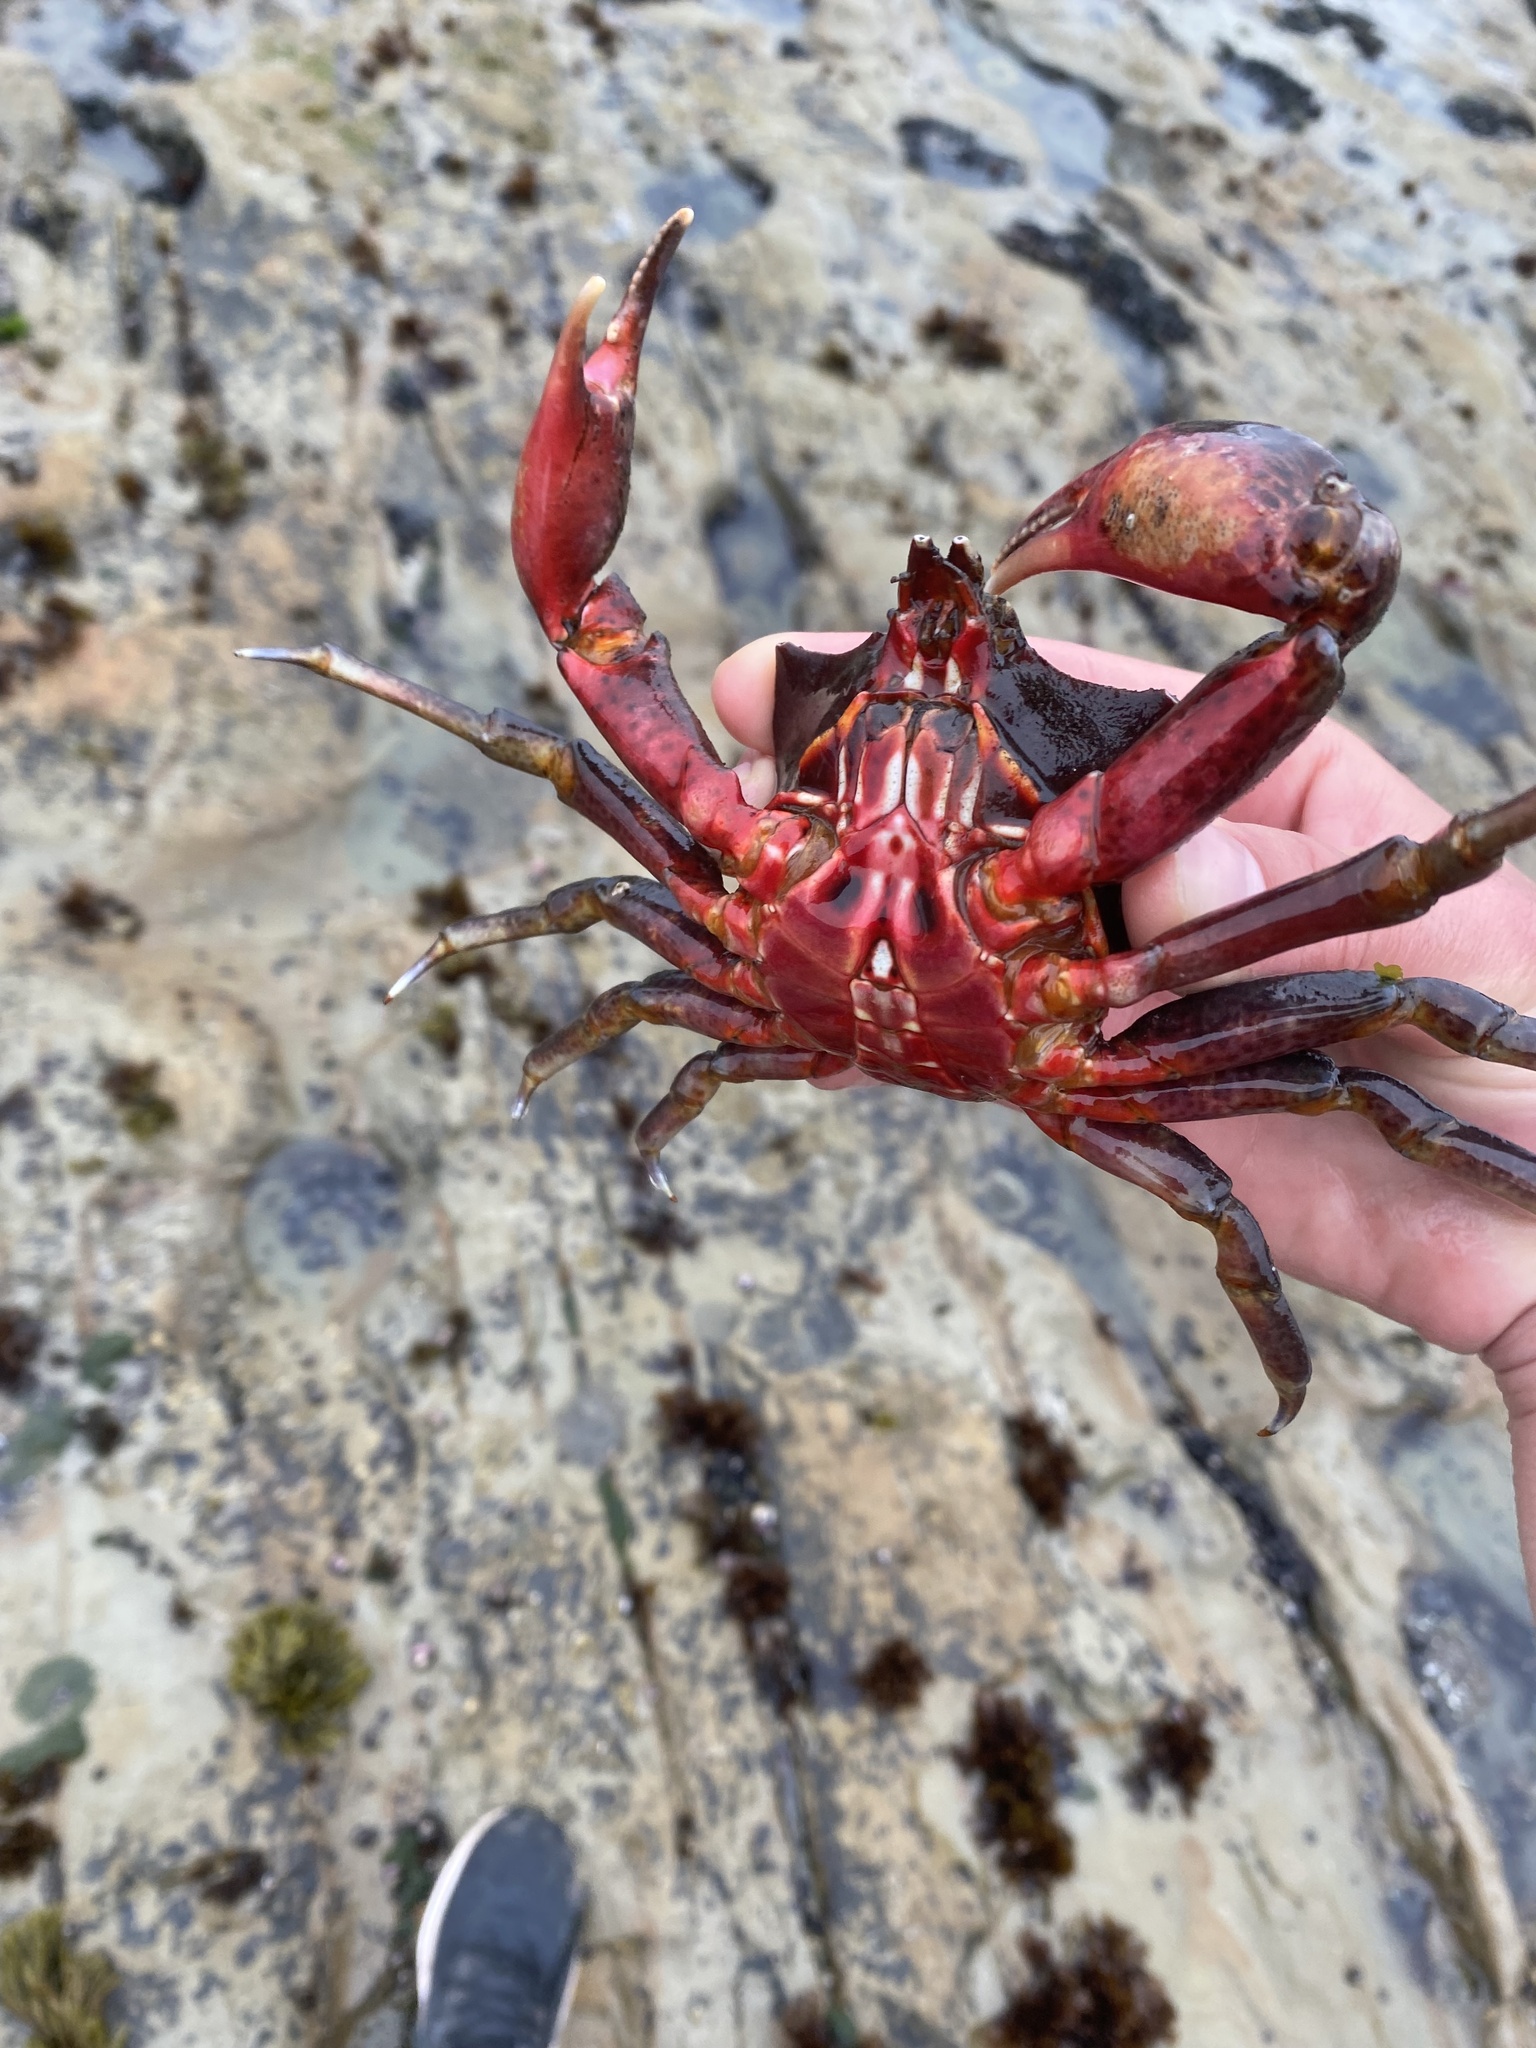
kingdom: Animalia
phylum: Arthropoda
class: Malacostraca
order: Decapoda
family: Epialtidae
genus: Pugettia
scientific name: Pugettia producta
